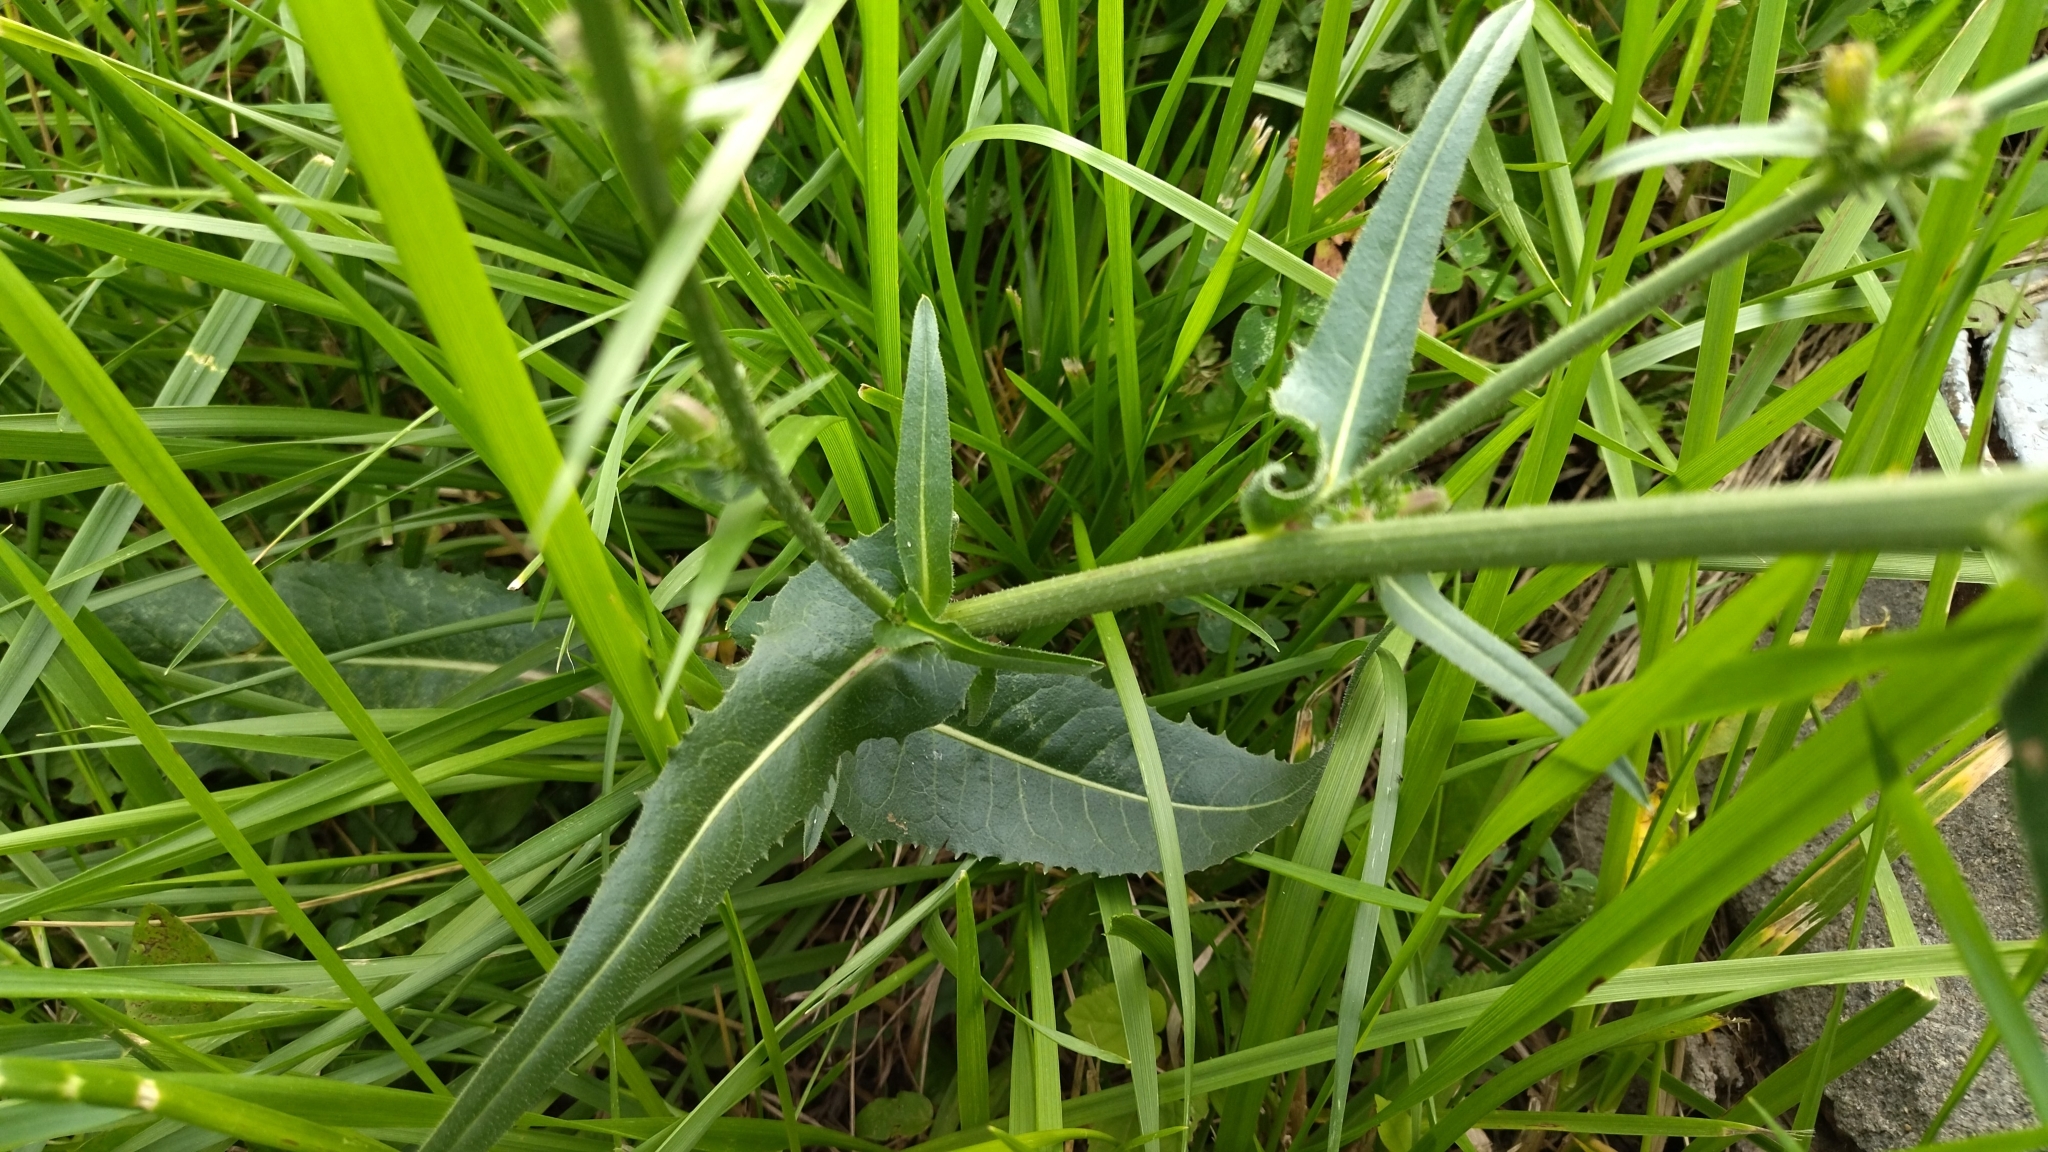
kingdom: Plantae
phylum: Tracheophyta
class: Magnoliopsida
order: Asterales
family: Asteraceae
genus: Cichorium
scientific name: Cichorium intybus
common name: Chicory
